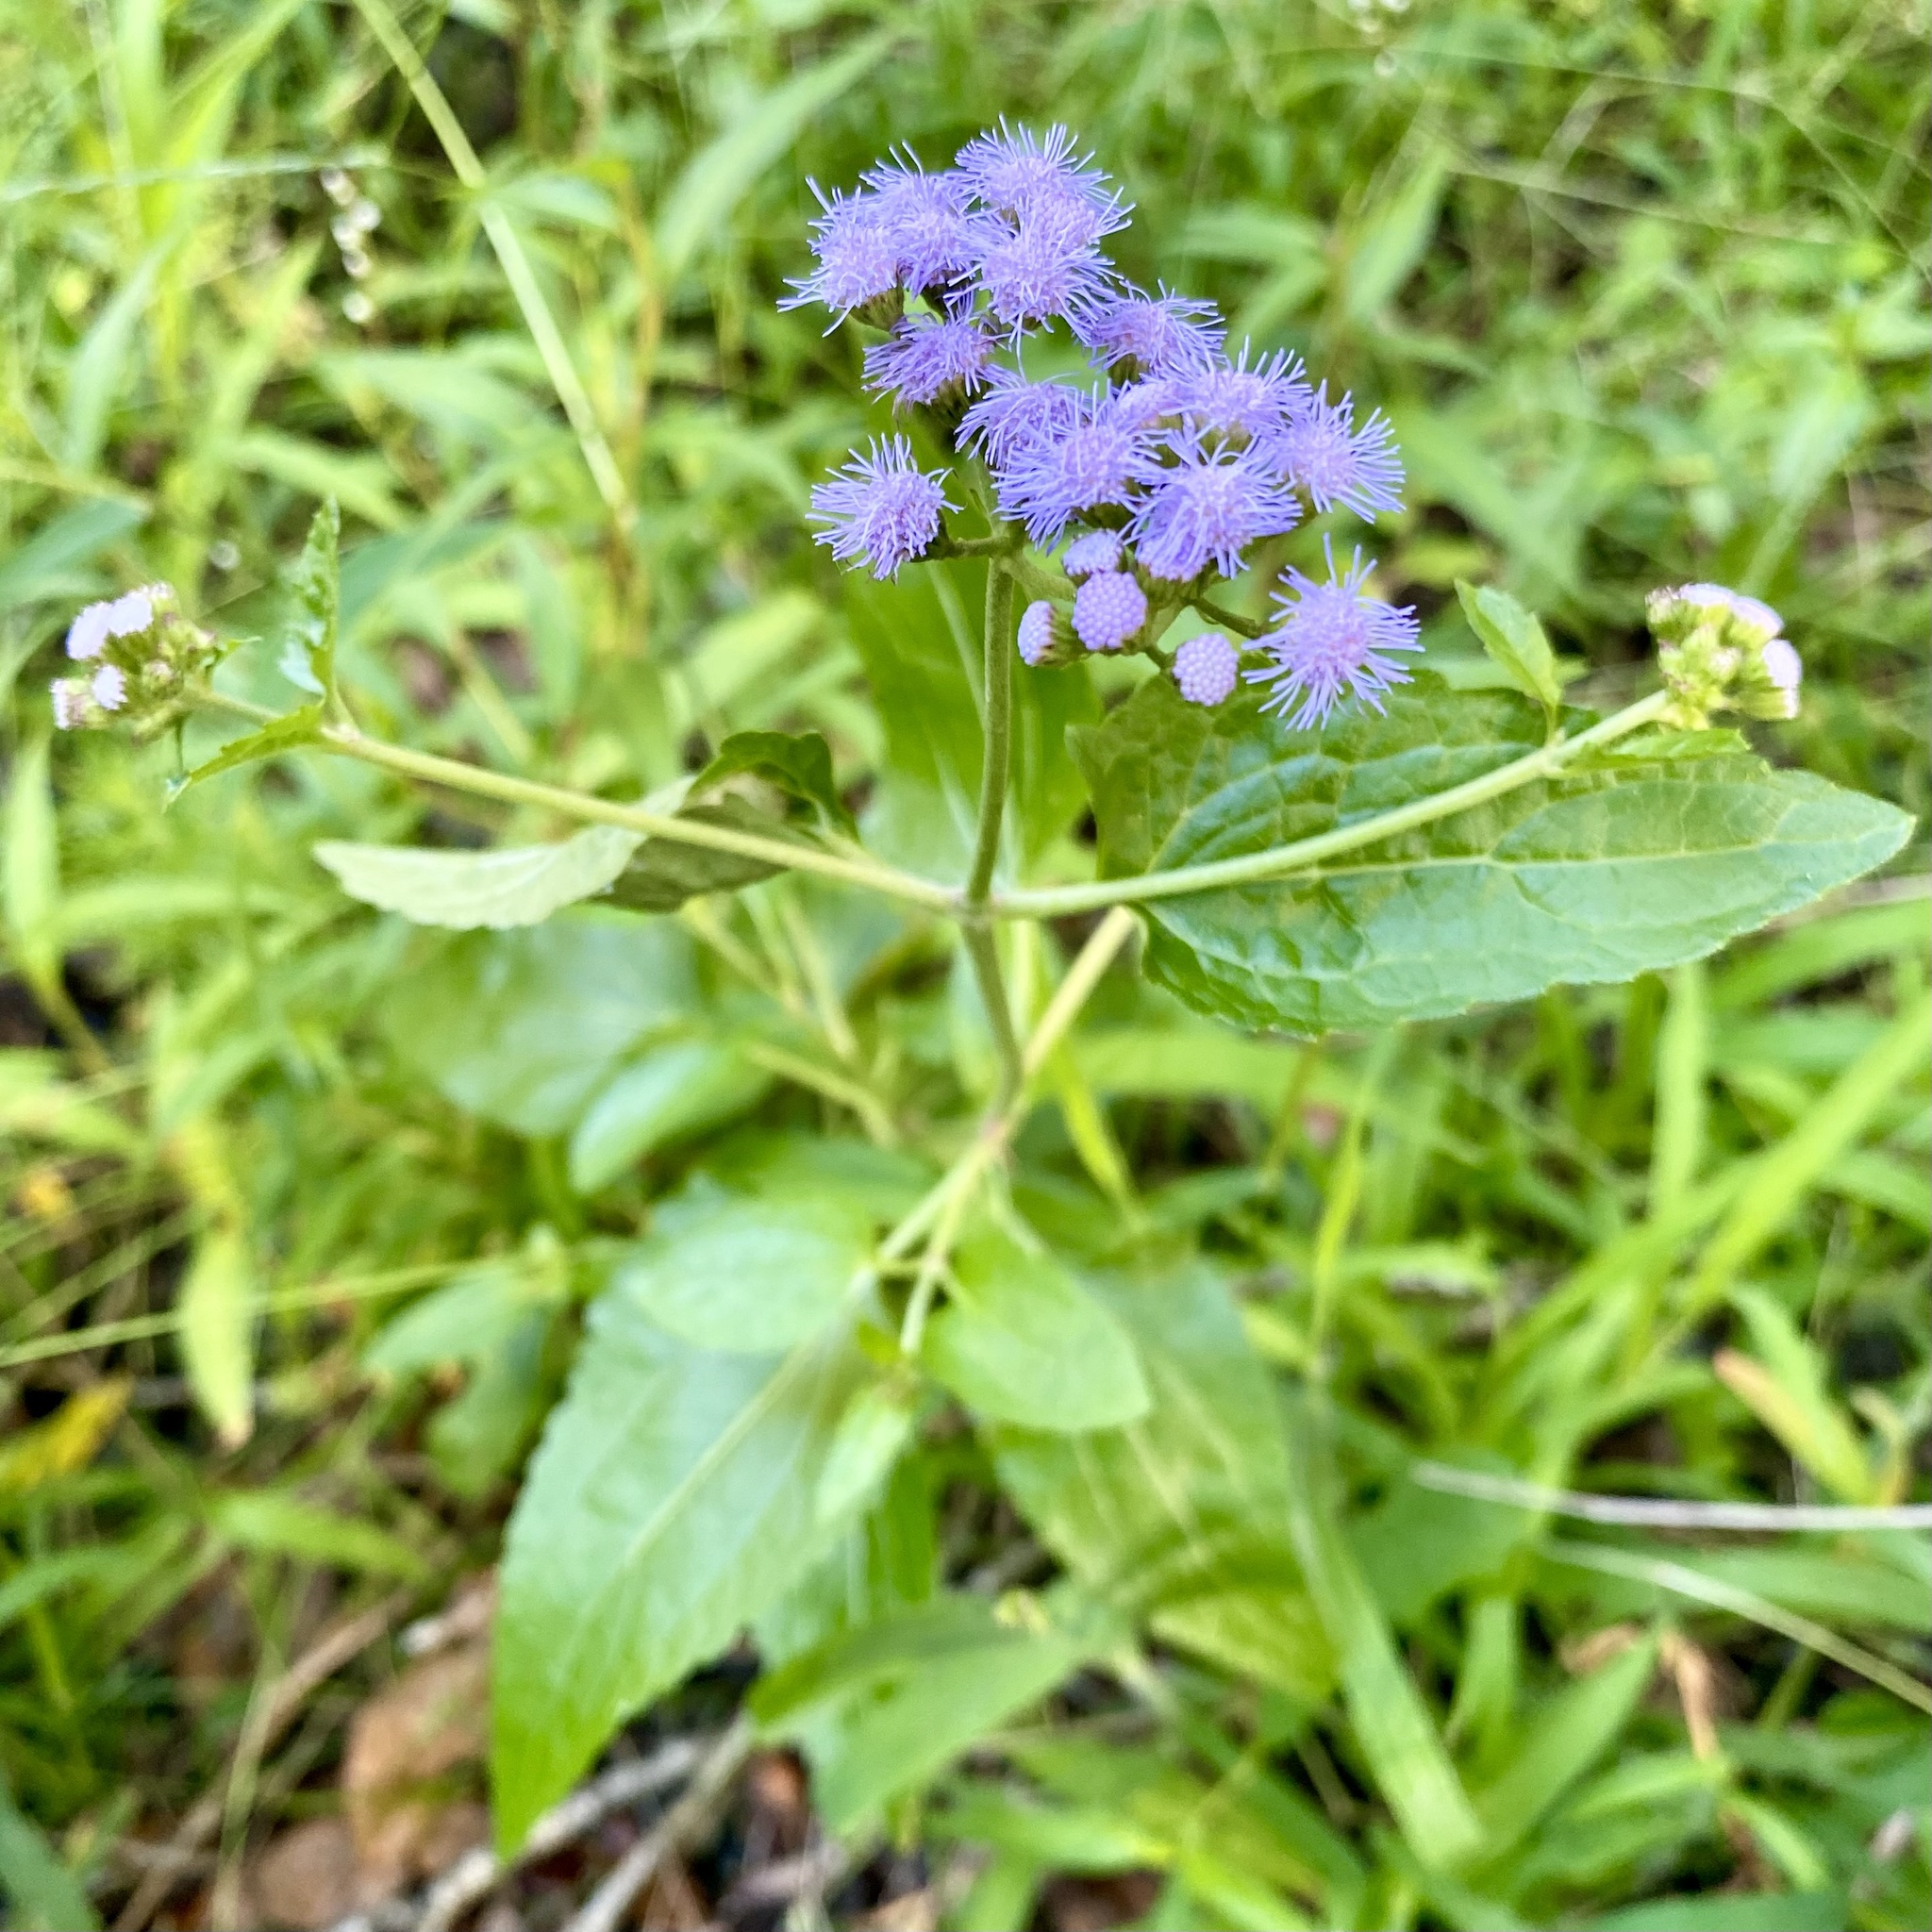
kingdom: Plantae
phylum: Tracheophyta
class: Magnoliopsida
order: Asterales
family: Asteraceae
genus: Conoclinium
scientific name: Conoclinium coelestinum
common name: Blue mistflower
